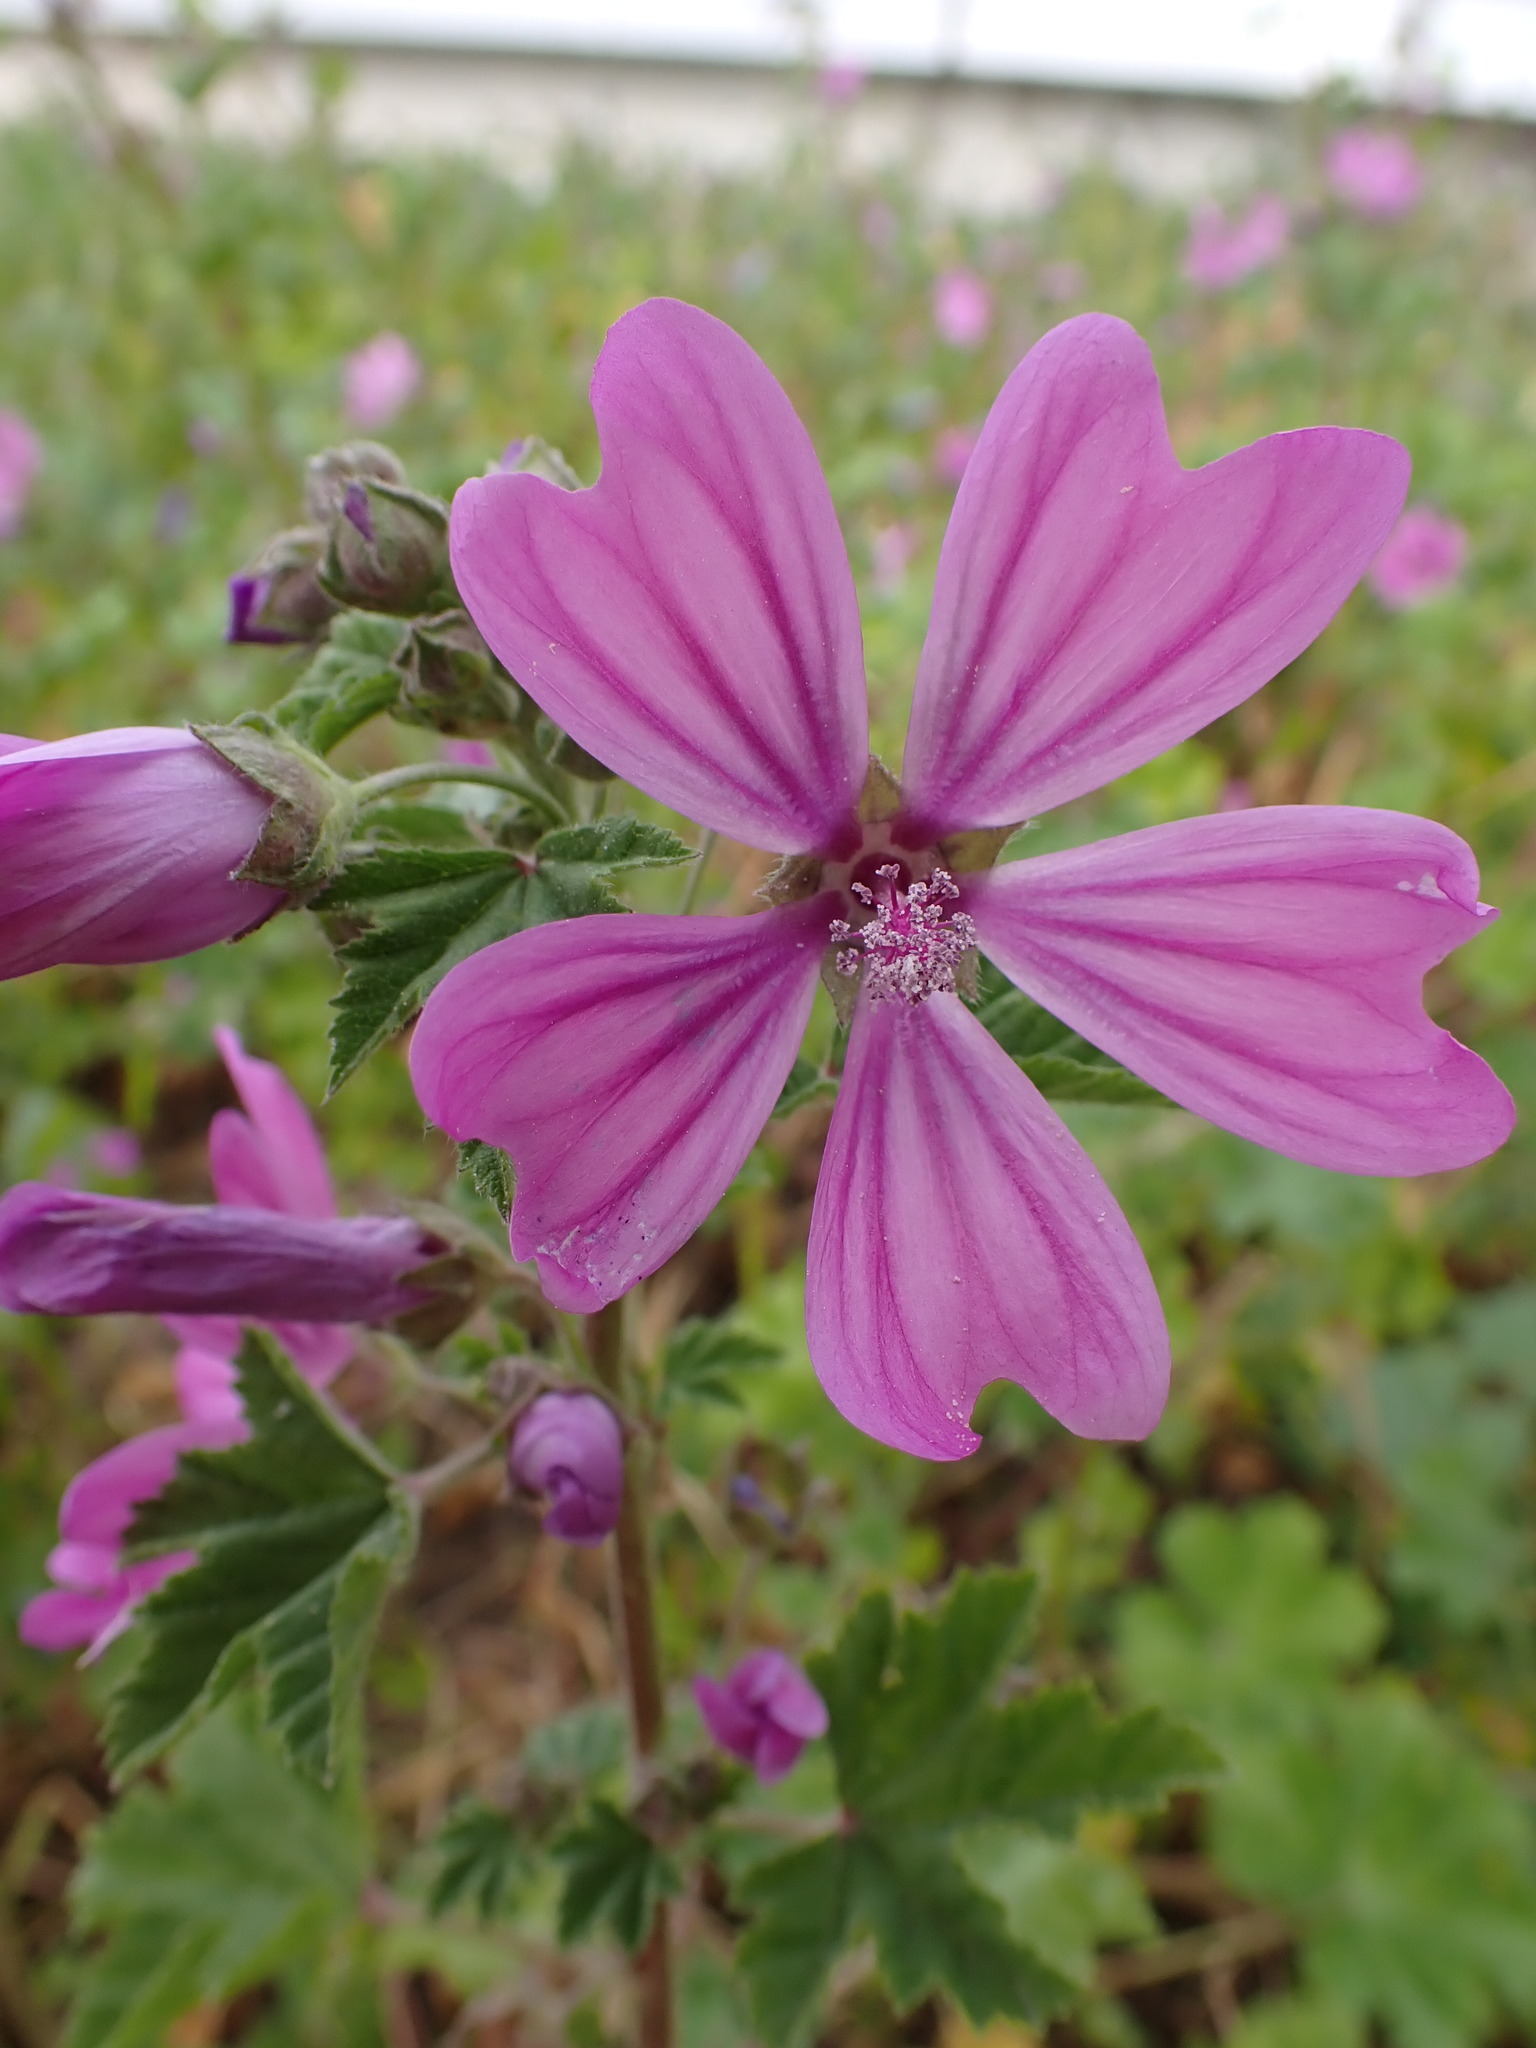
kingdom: Plantae
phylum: Tracheophyta
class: Magnoliopsida
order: Malvales
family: Malvaceae
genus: Malva
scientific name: Malva sylvestris
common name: Common mallow
